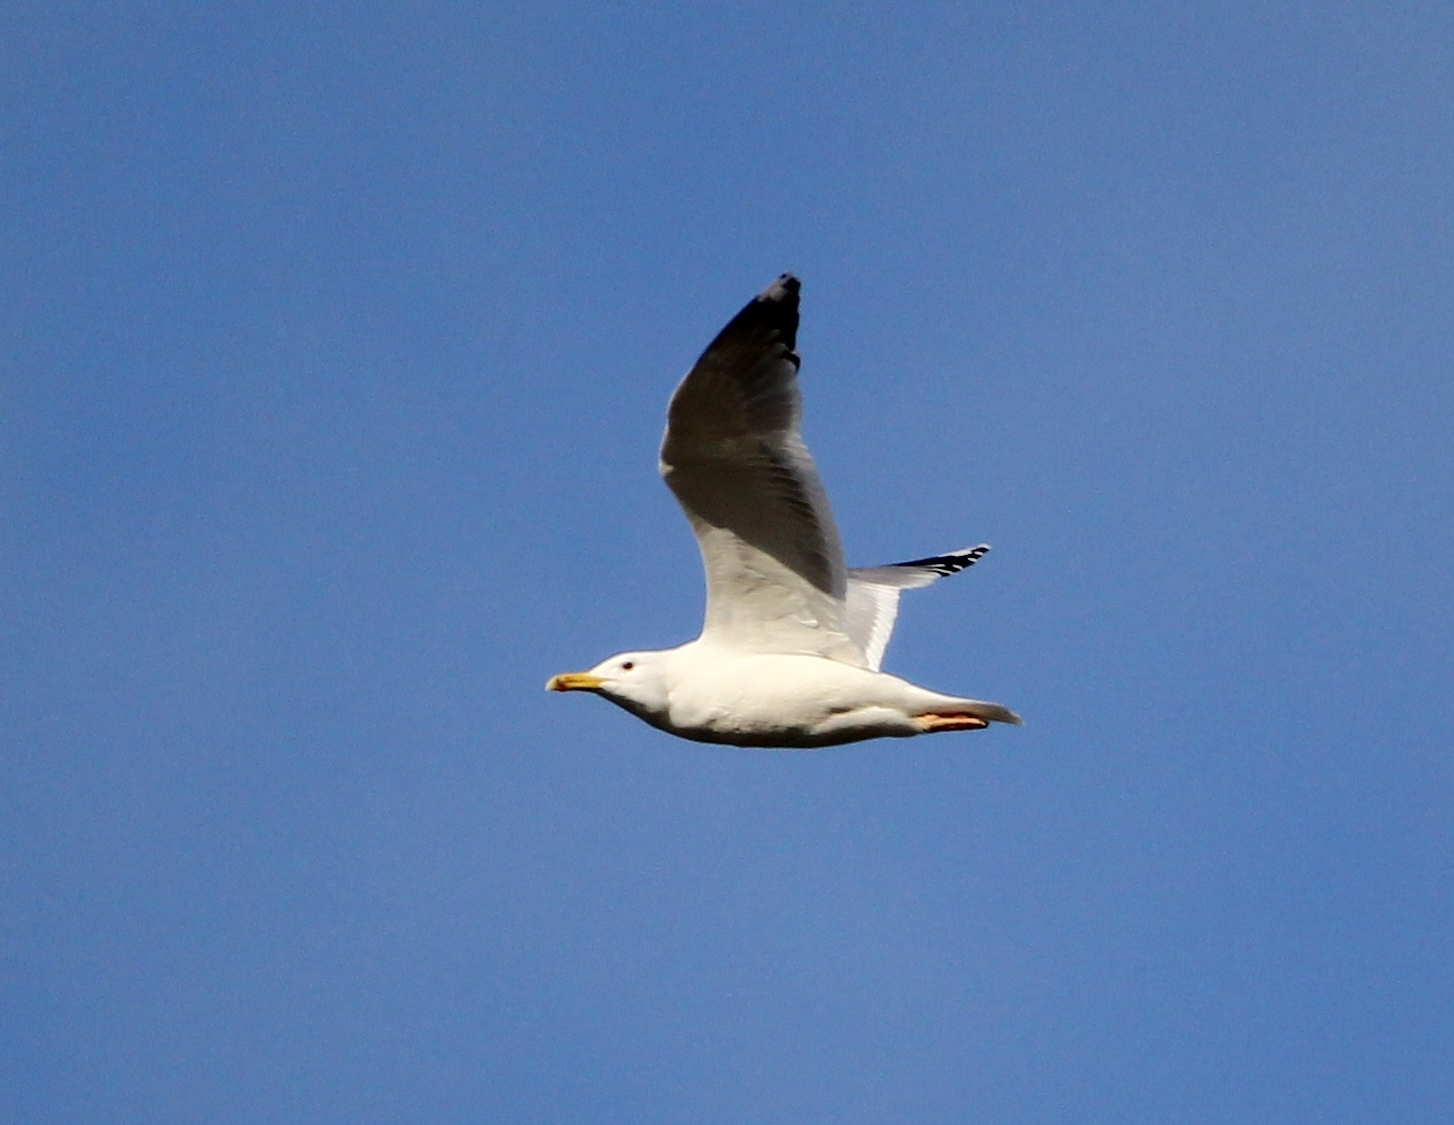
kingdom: Animalia
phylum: Chordata
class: Aves
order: Charadriiformes
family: Laridae
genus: Larus
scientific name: Larus cachinnans
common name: Caspian gull
